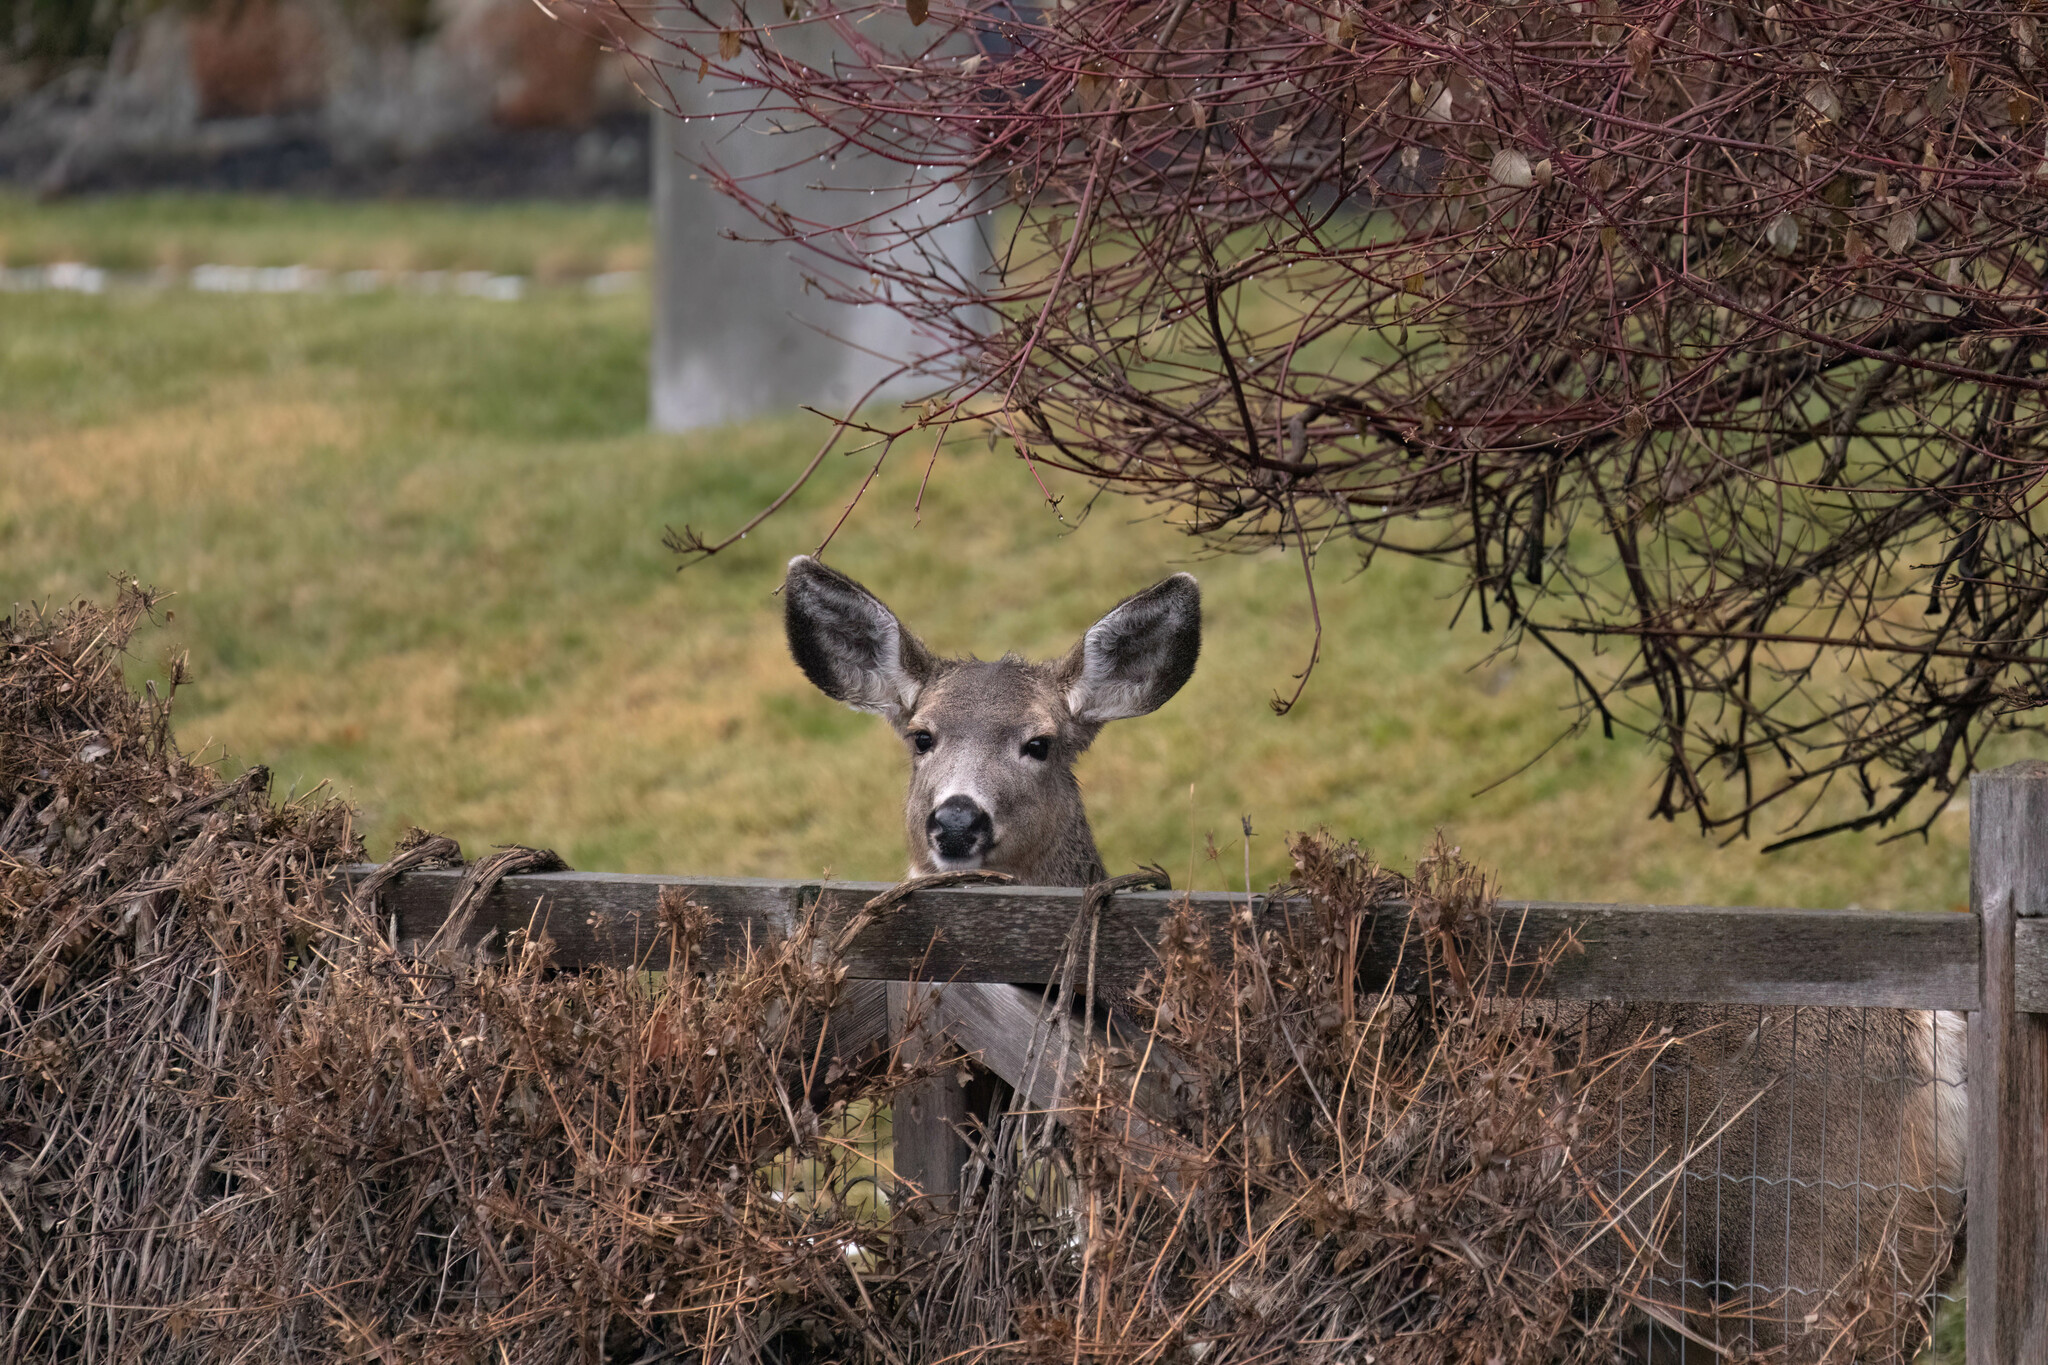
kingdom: Animalia
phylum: Chordata
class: Mammalia
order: Artiodactyla
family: Cervidae
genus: Odocoileus
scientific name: Odocoileus hemionus
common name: Mule deer
